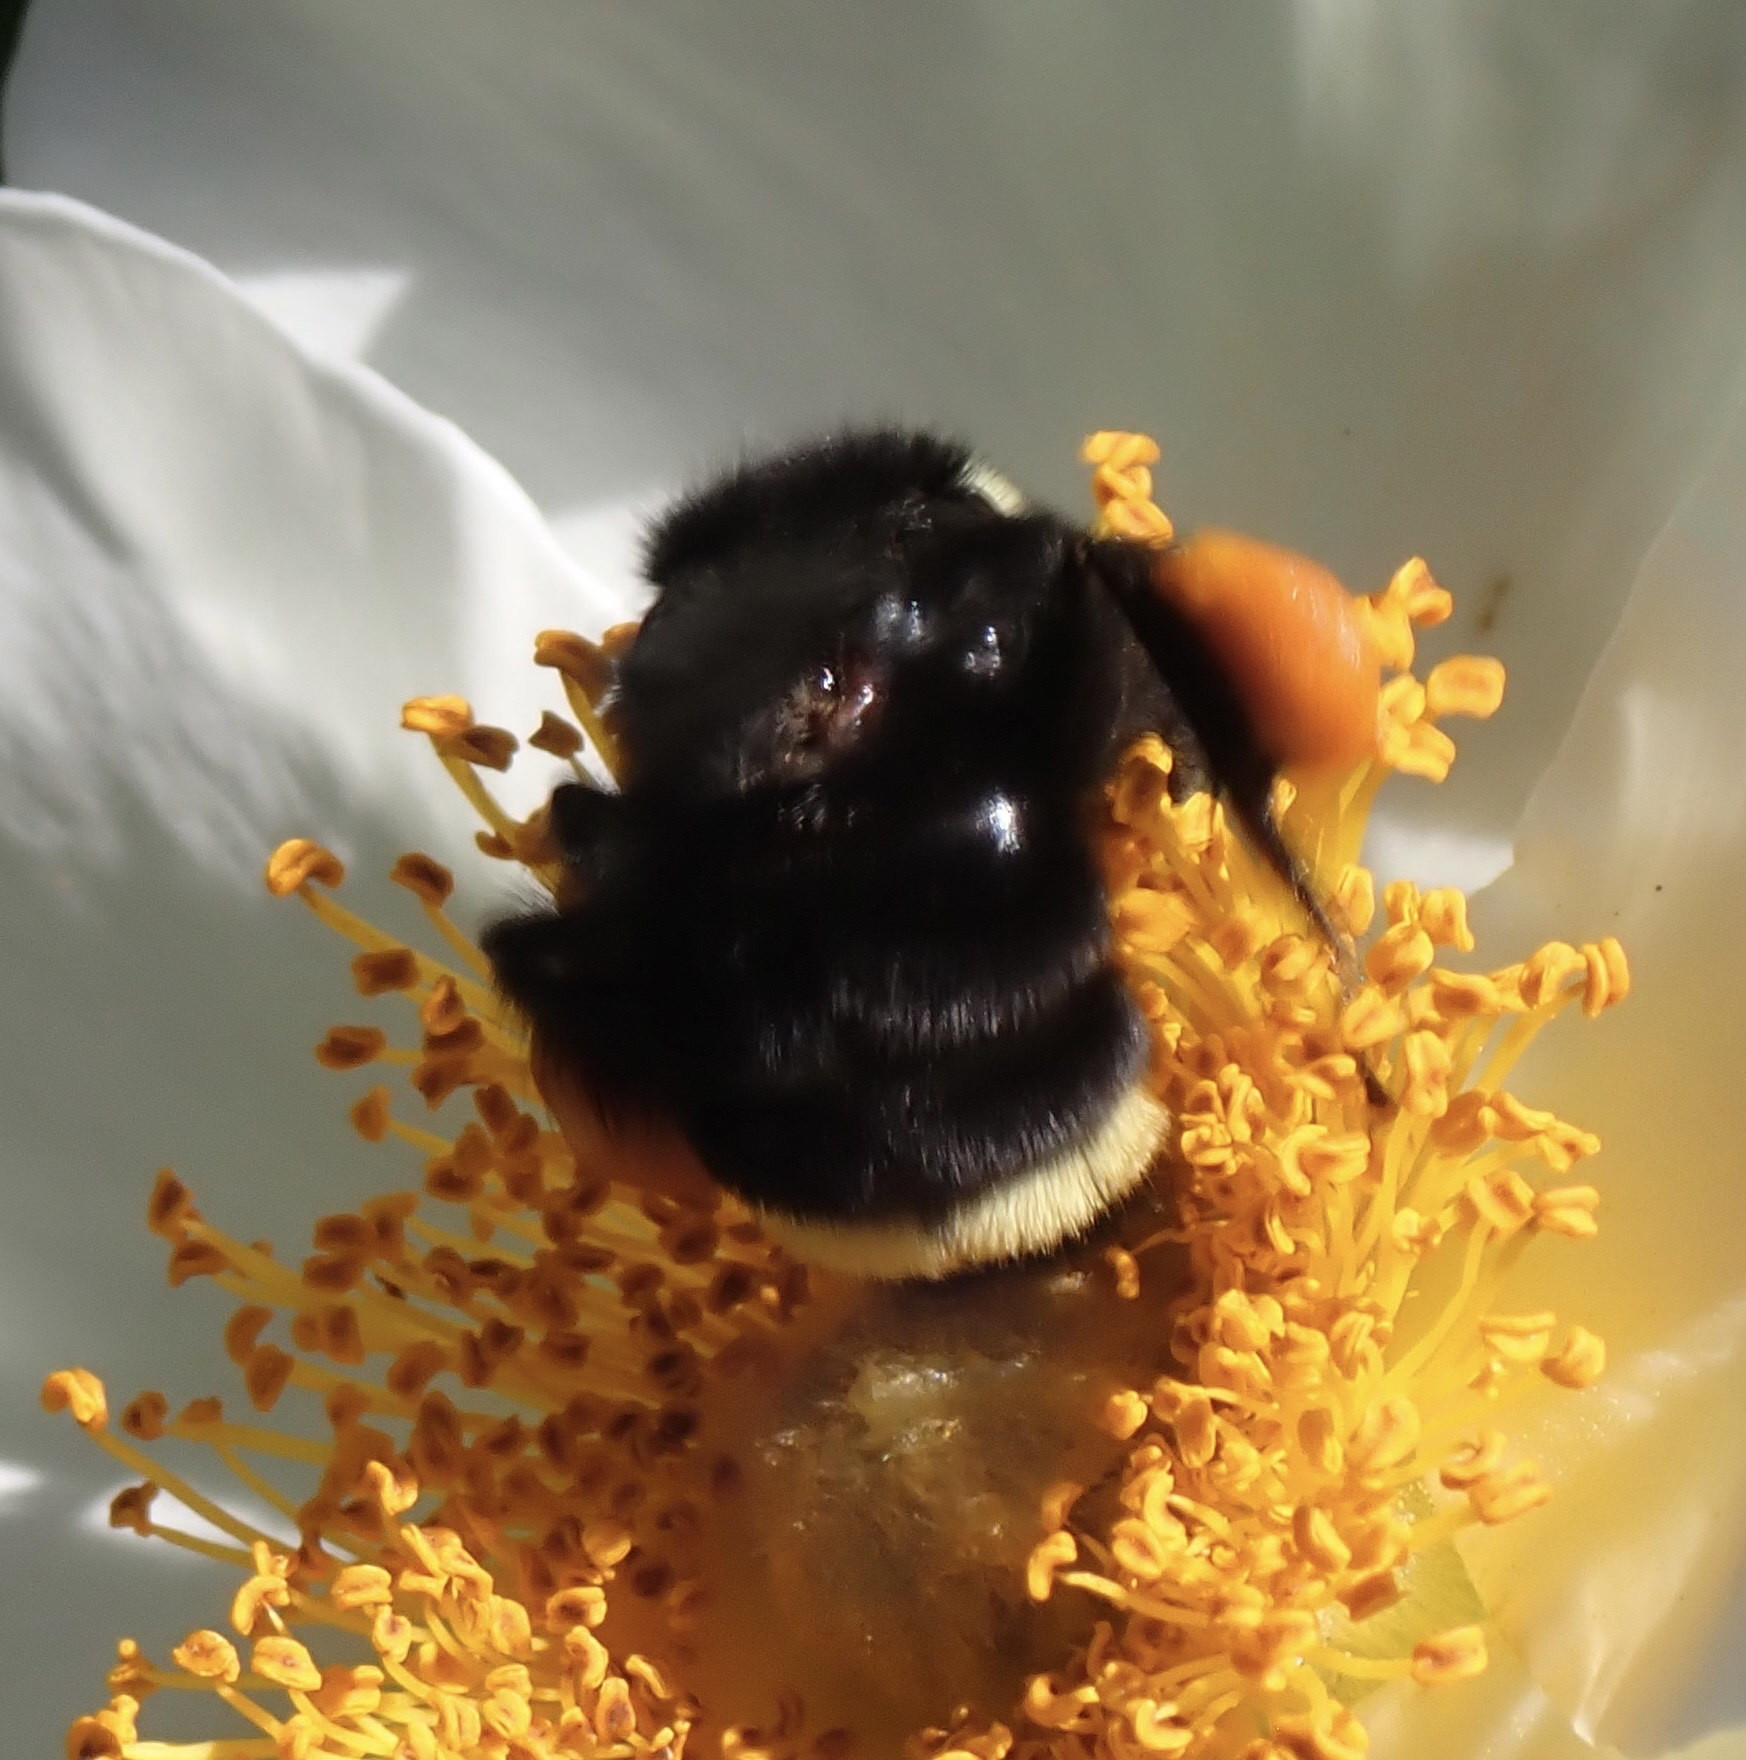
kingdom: Animalia
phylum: Arthropoda
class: Insecta
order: Hymenoptera
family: Apidae
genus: Bombus
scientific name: Bombus vosnesenskii
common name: Vosnesensky bumble bee
